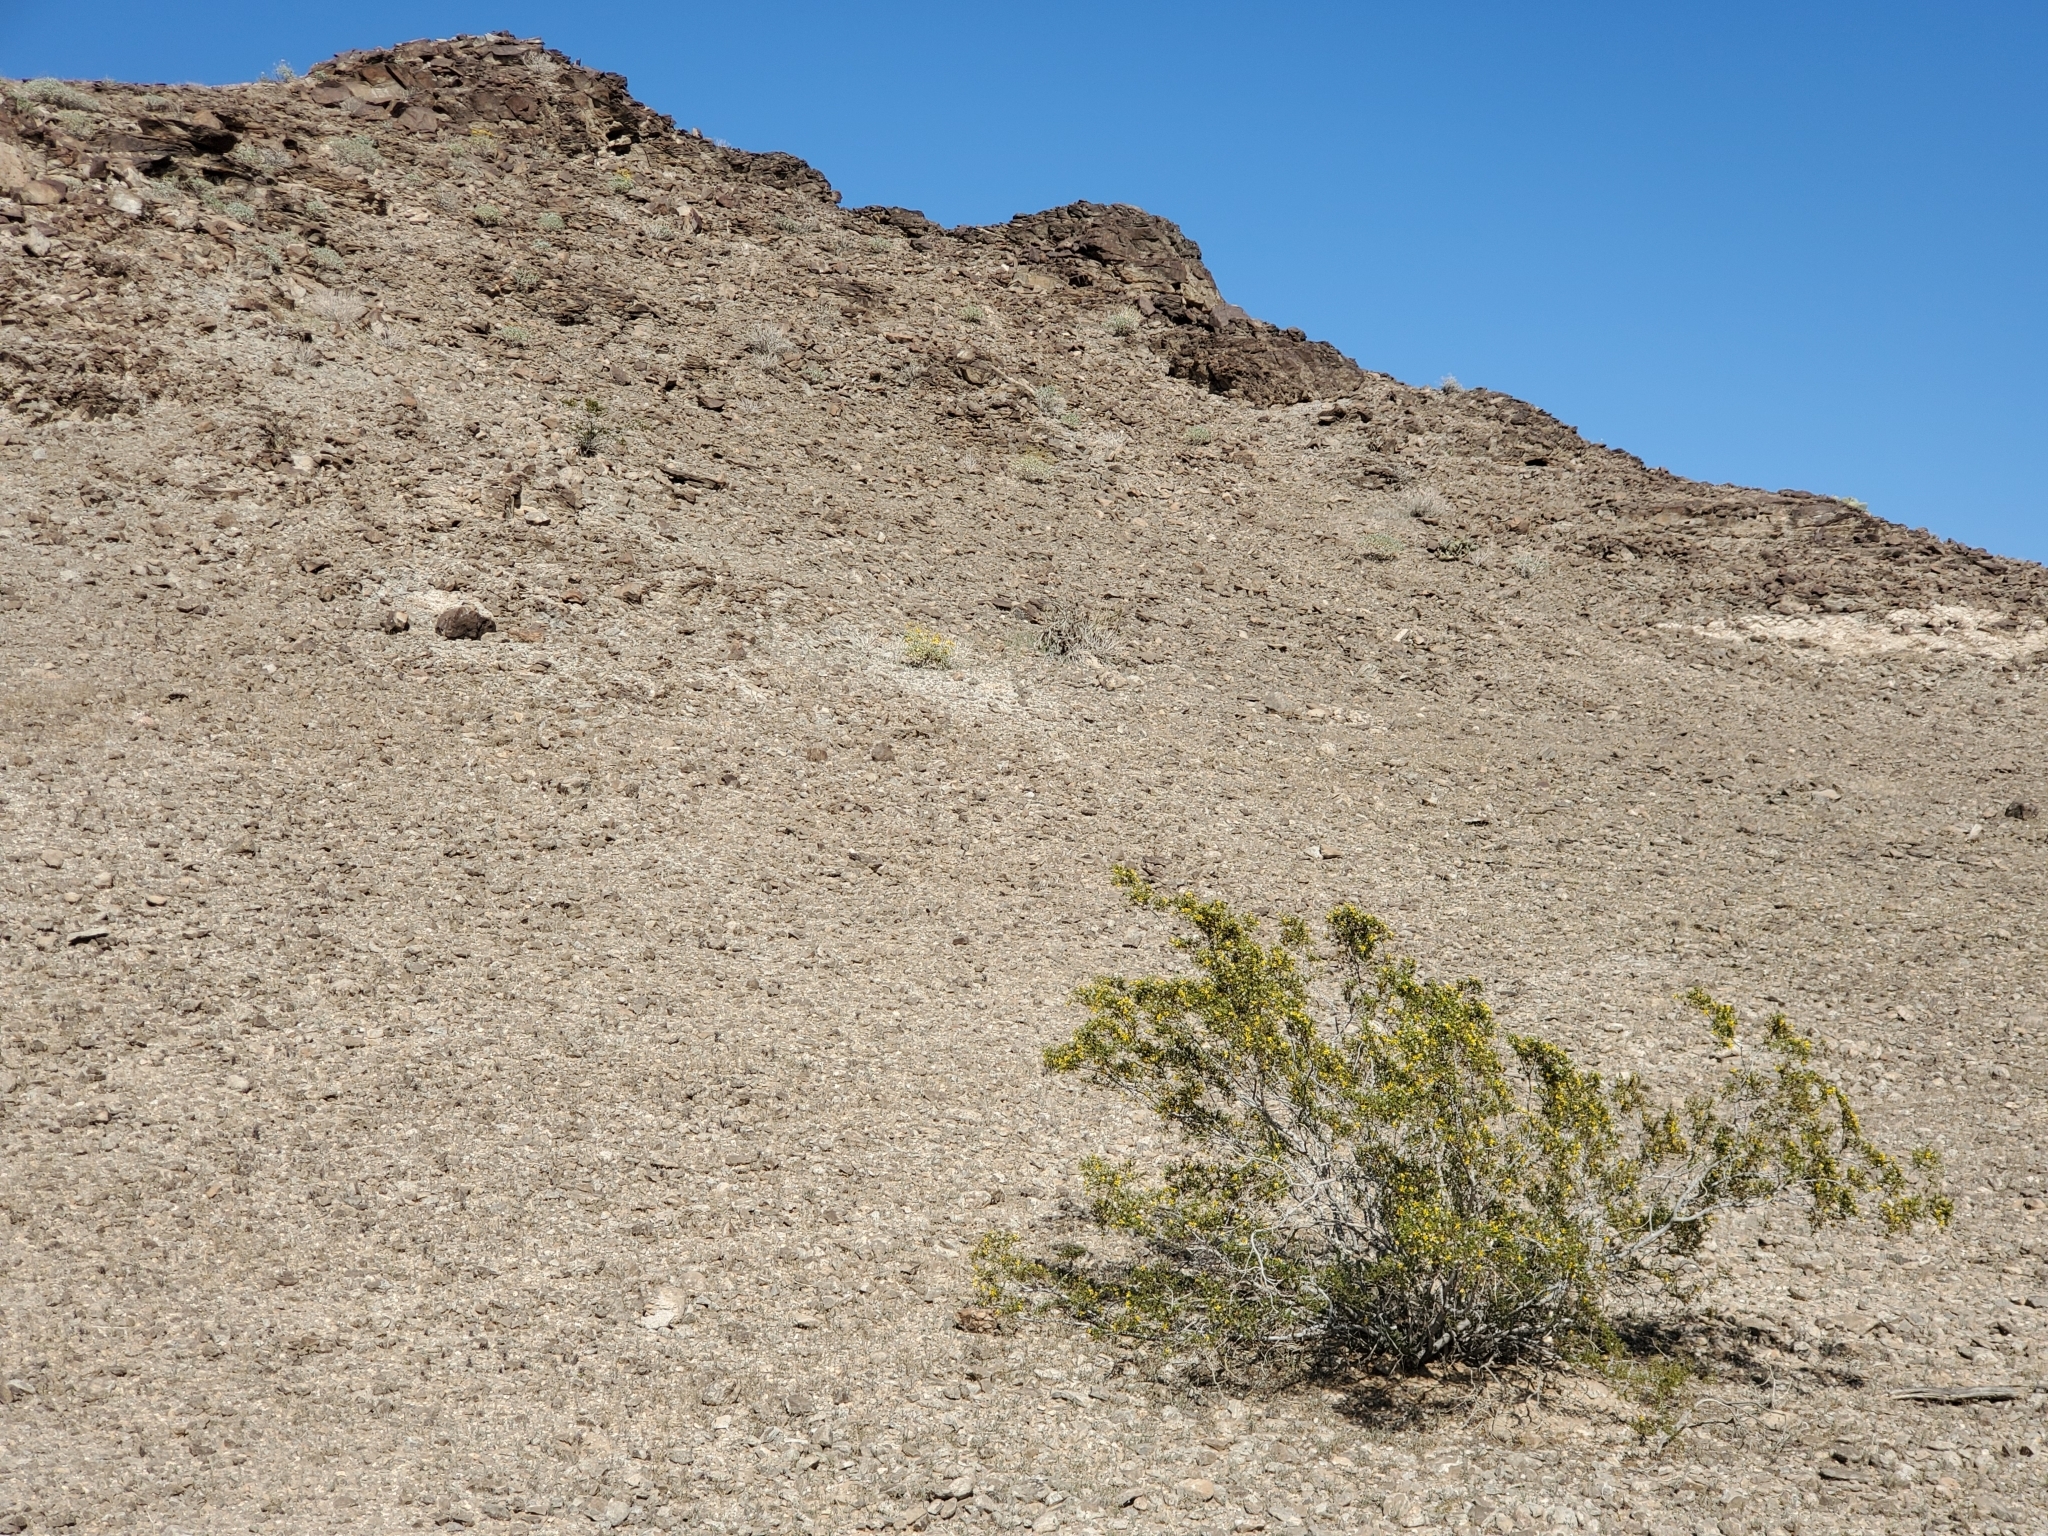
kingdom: Plantae
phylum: Tracheophyta
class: Magnoliopsida
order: Zygophyllales
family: Zygophyllaceae
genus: Larrea
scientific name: Larrea tridentata
